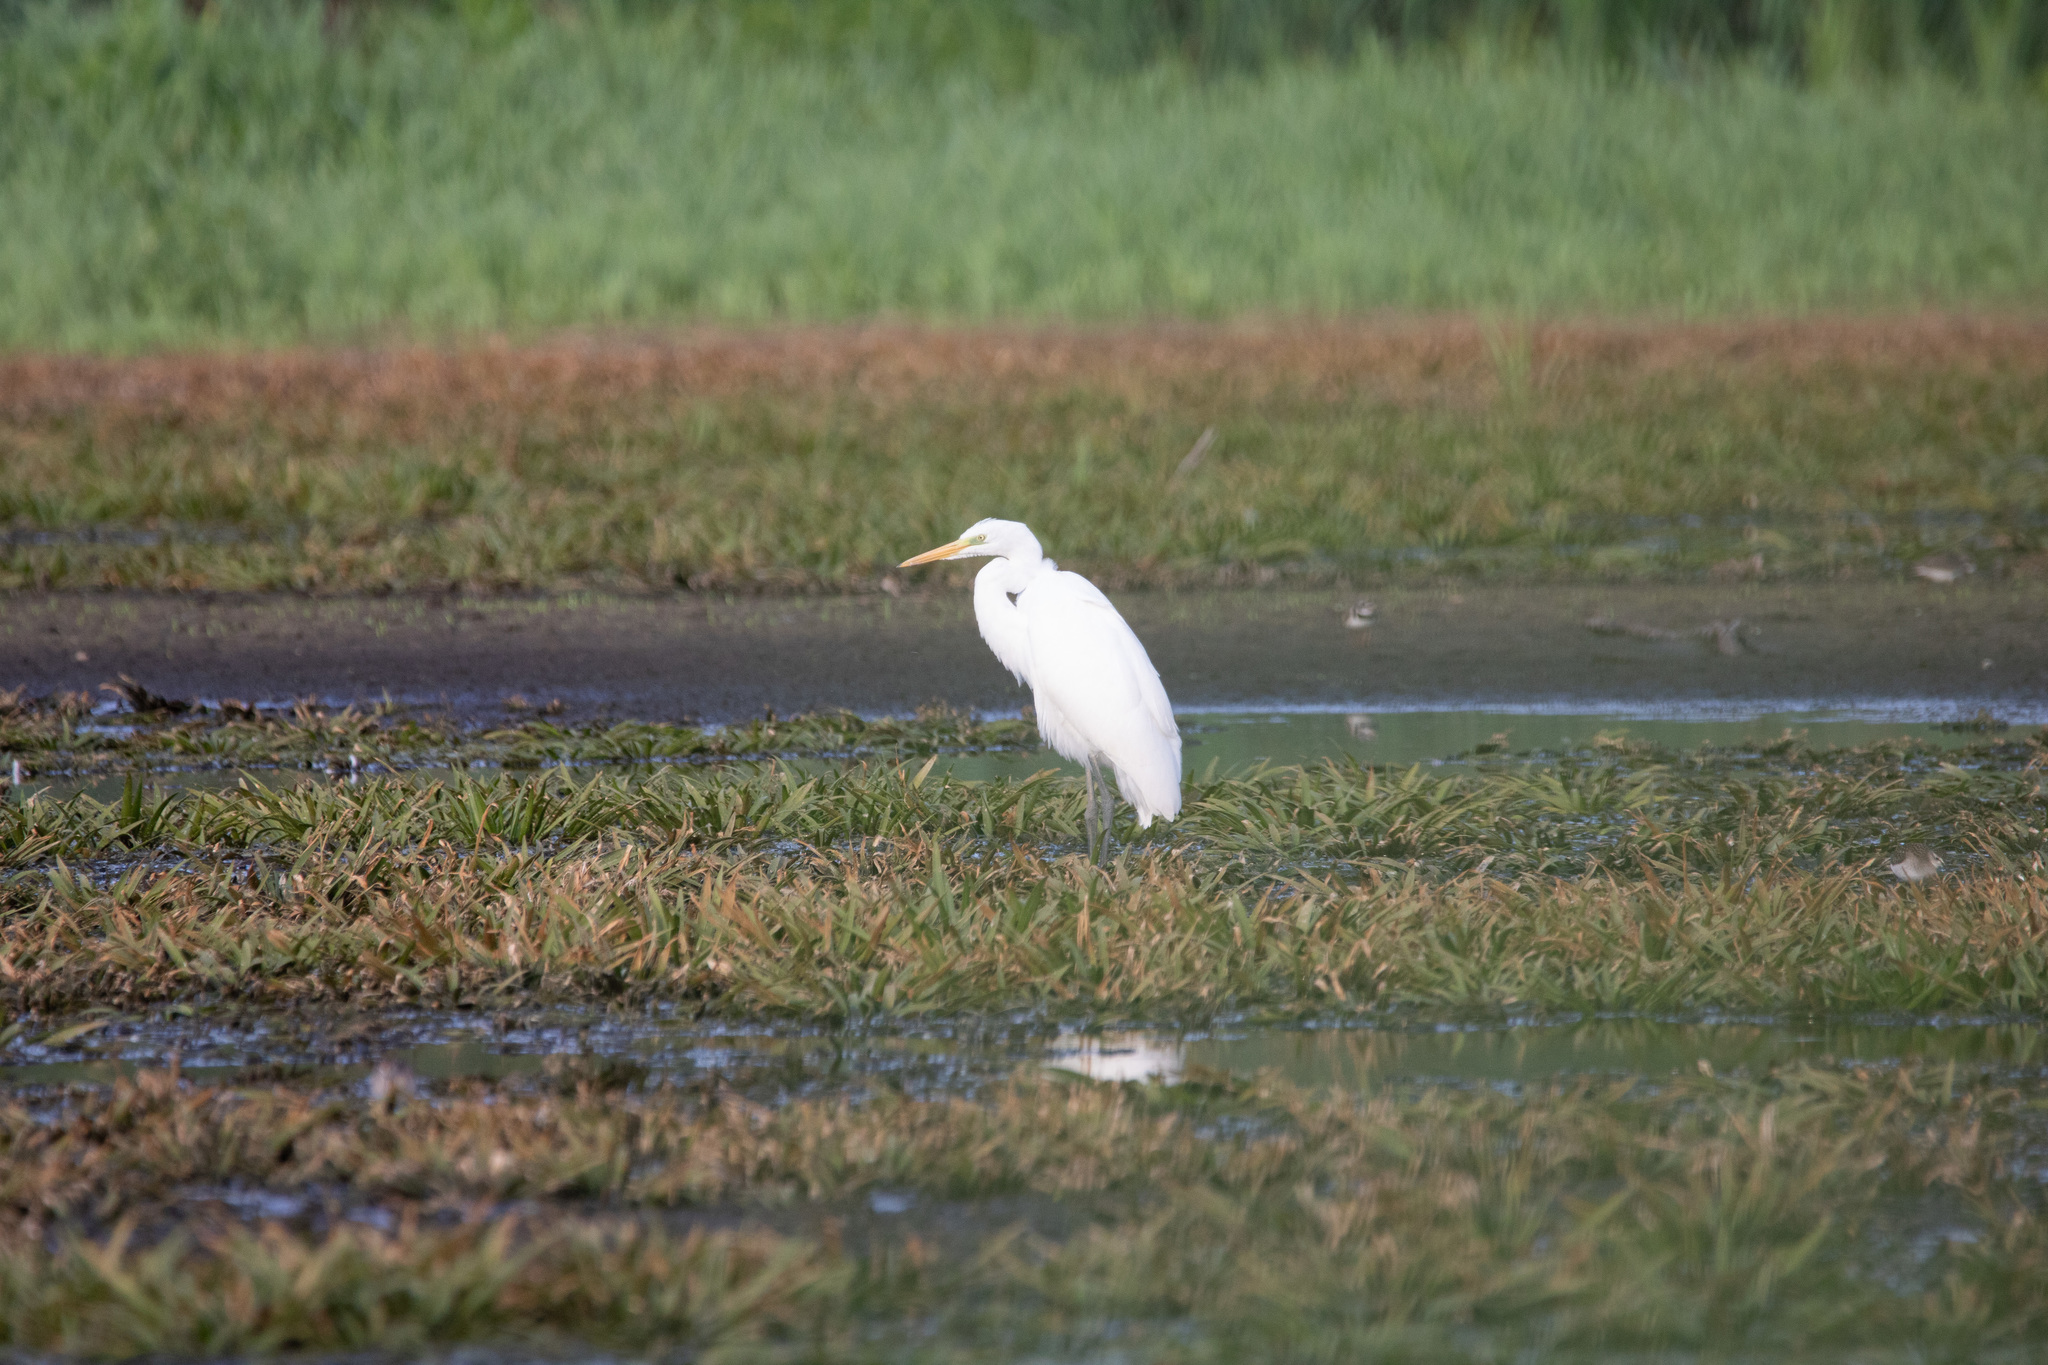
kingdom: Animalia
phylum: Chordata
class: Aves
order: Pelecaniformes
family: Ardeidae
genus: Ardea
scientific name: Ardea alba
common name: Great egret
